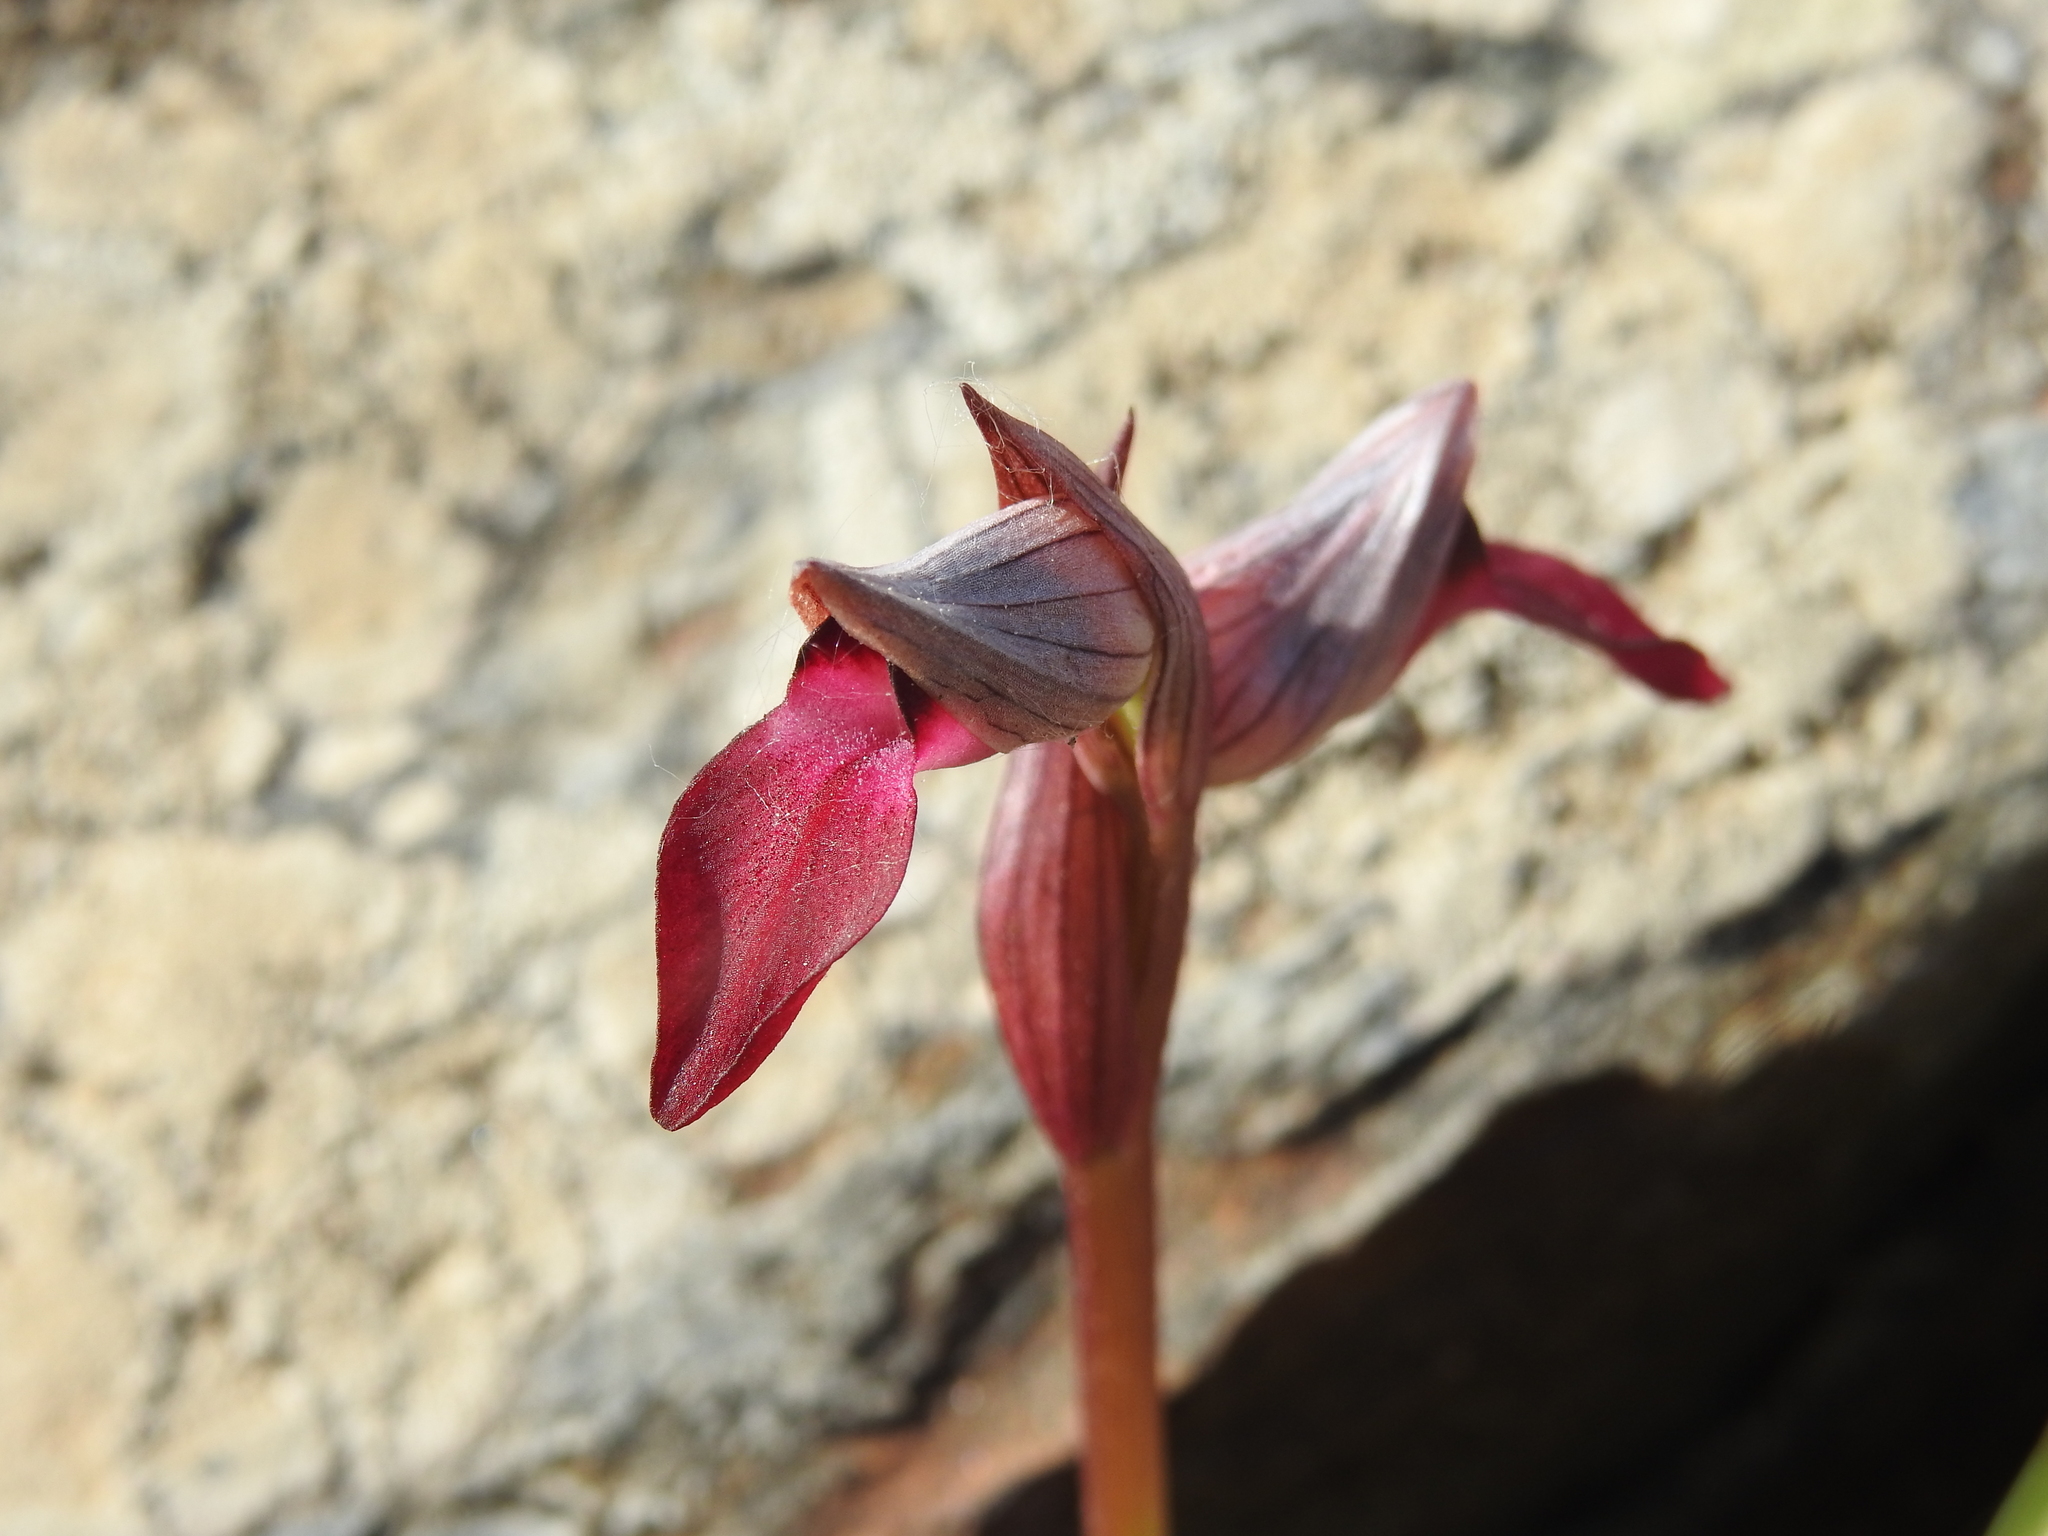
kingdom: Plantae
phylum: Tracheophyta
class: Liliopsida
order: Asparagales
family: Orchidaceae
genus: Serapias
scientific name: Serapias lingua
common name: Tongue-orchid
